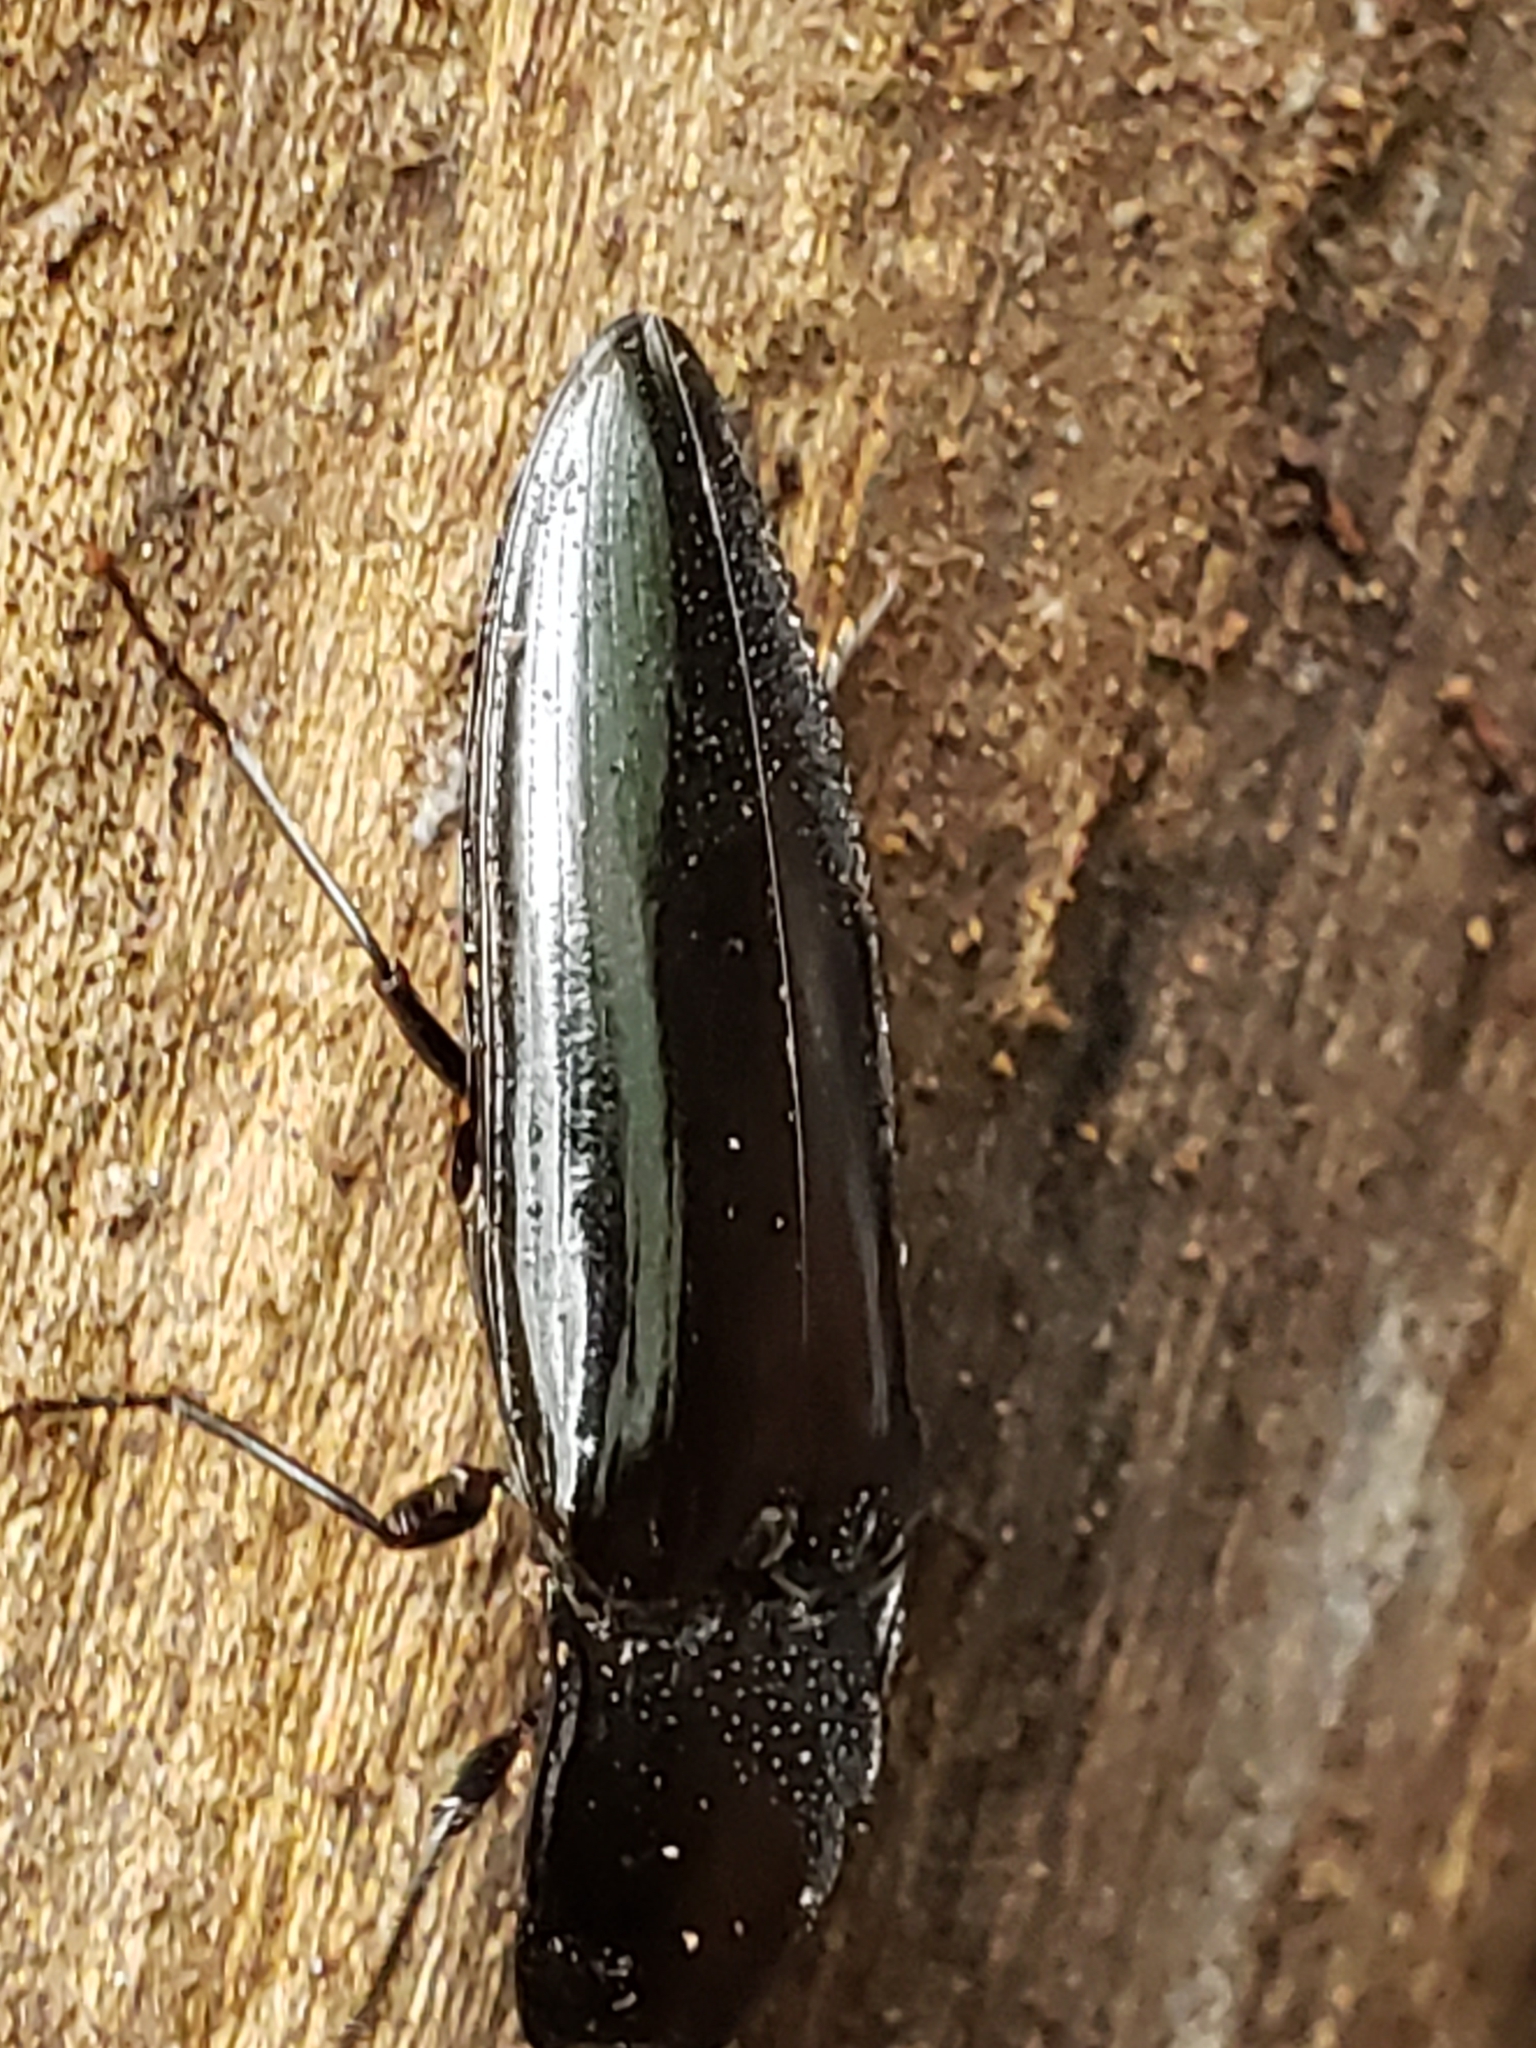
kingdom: Animalia
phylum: Arthropoda
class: Insecta
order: Coleoptera
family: Elateridae
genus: Melanactes
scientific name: Melanactes piceus
